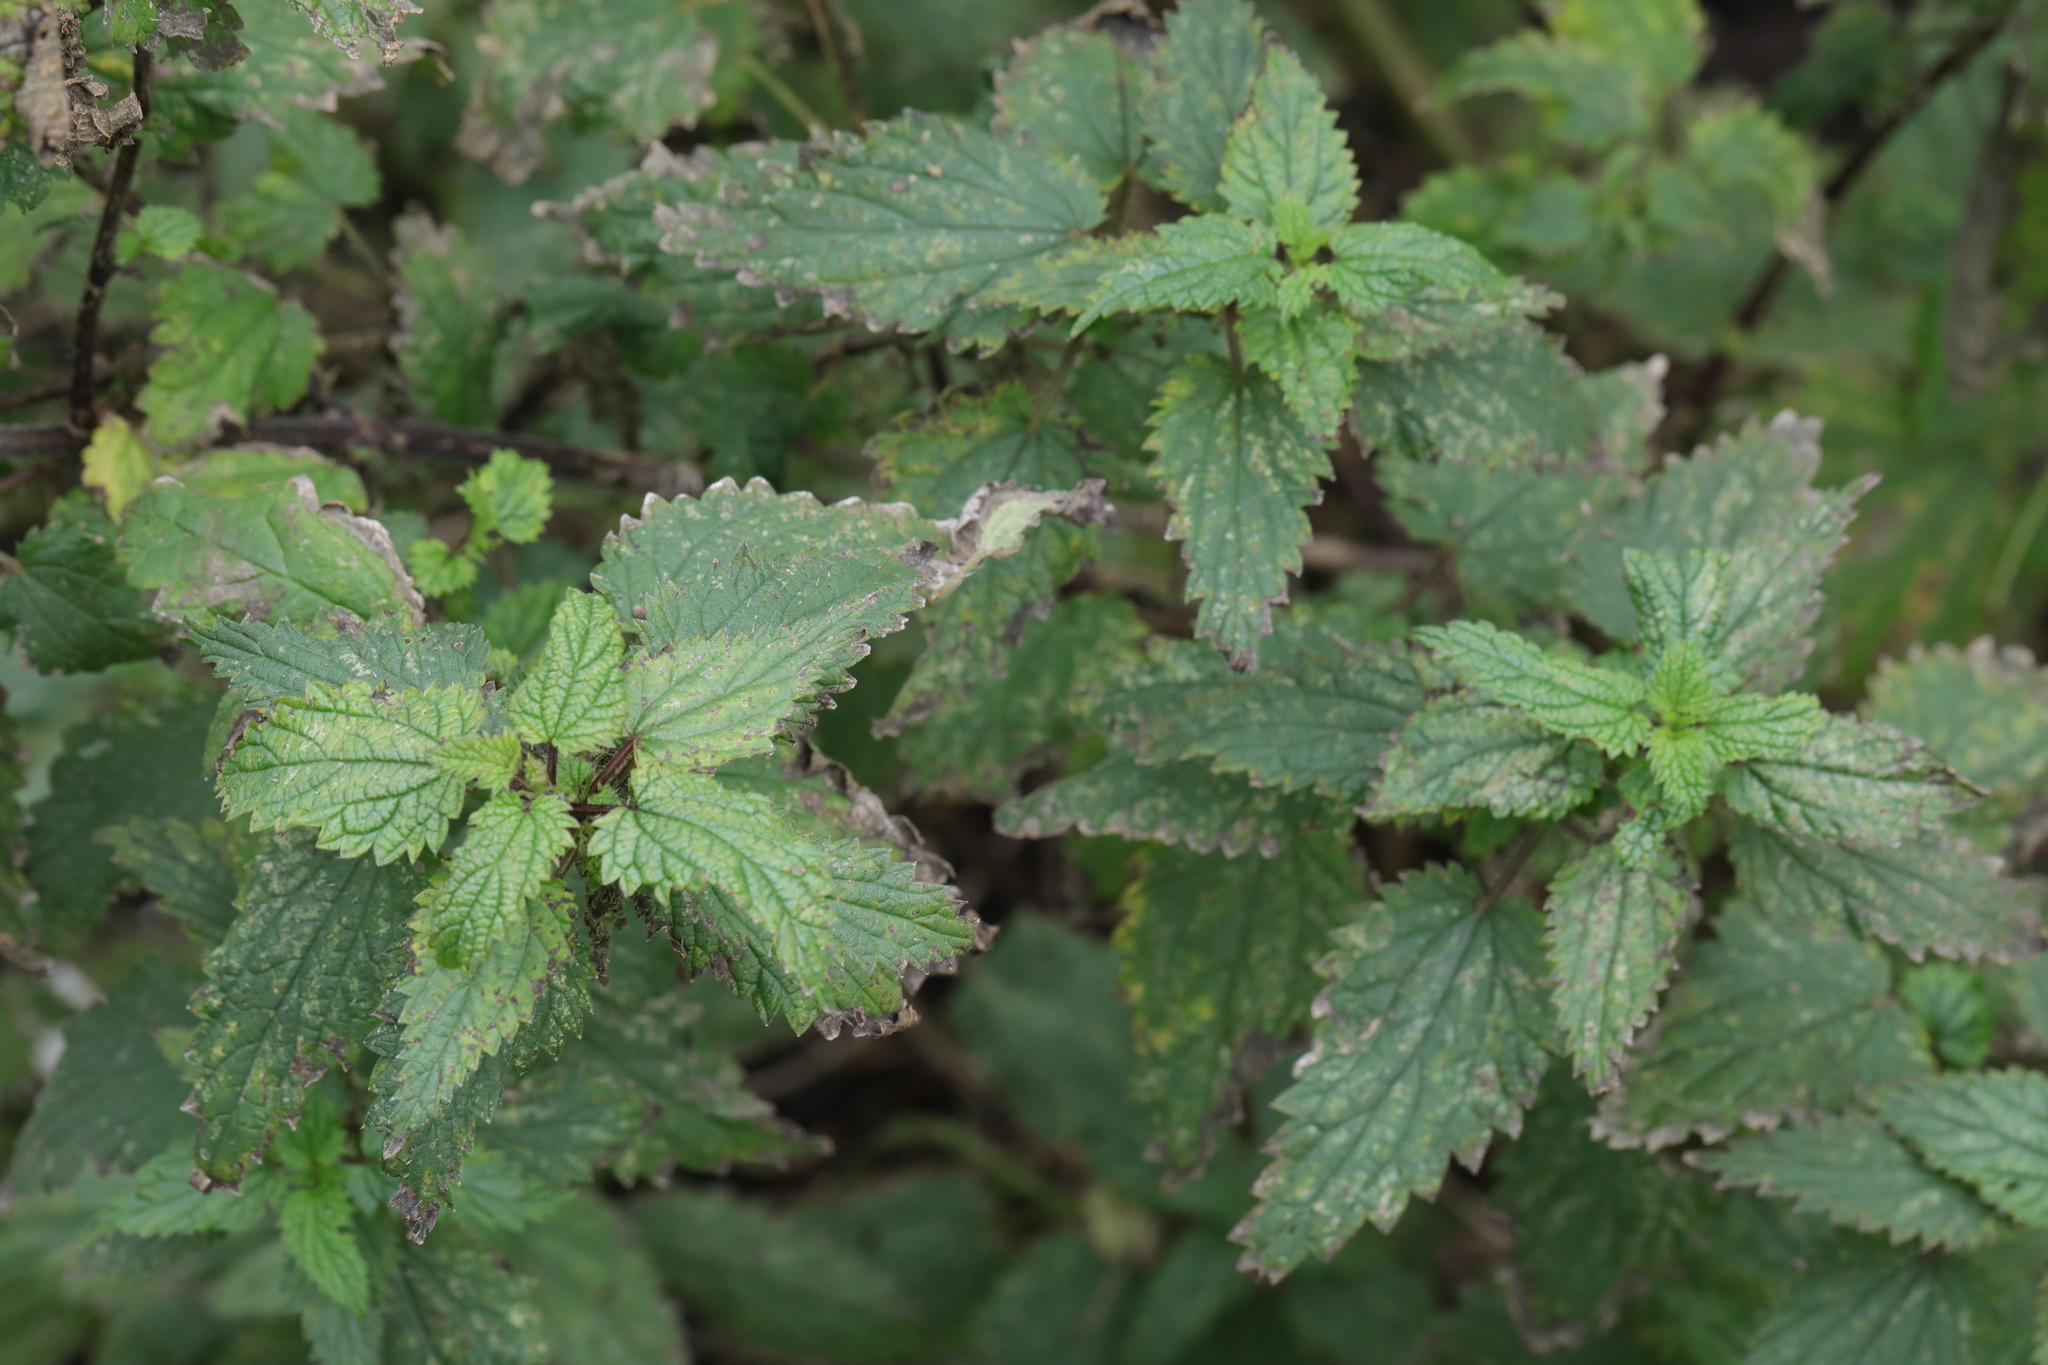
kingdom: Plantae
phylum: Tracheophyta
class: Magnoliopsida
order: Rosales
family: Urticaceae
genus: Urtica
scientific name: Urtica dioica
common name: Common nettle
